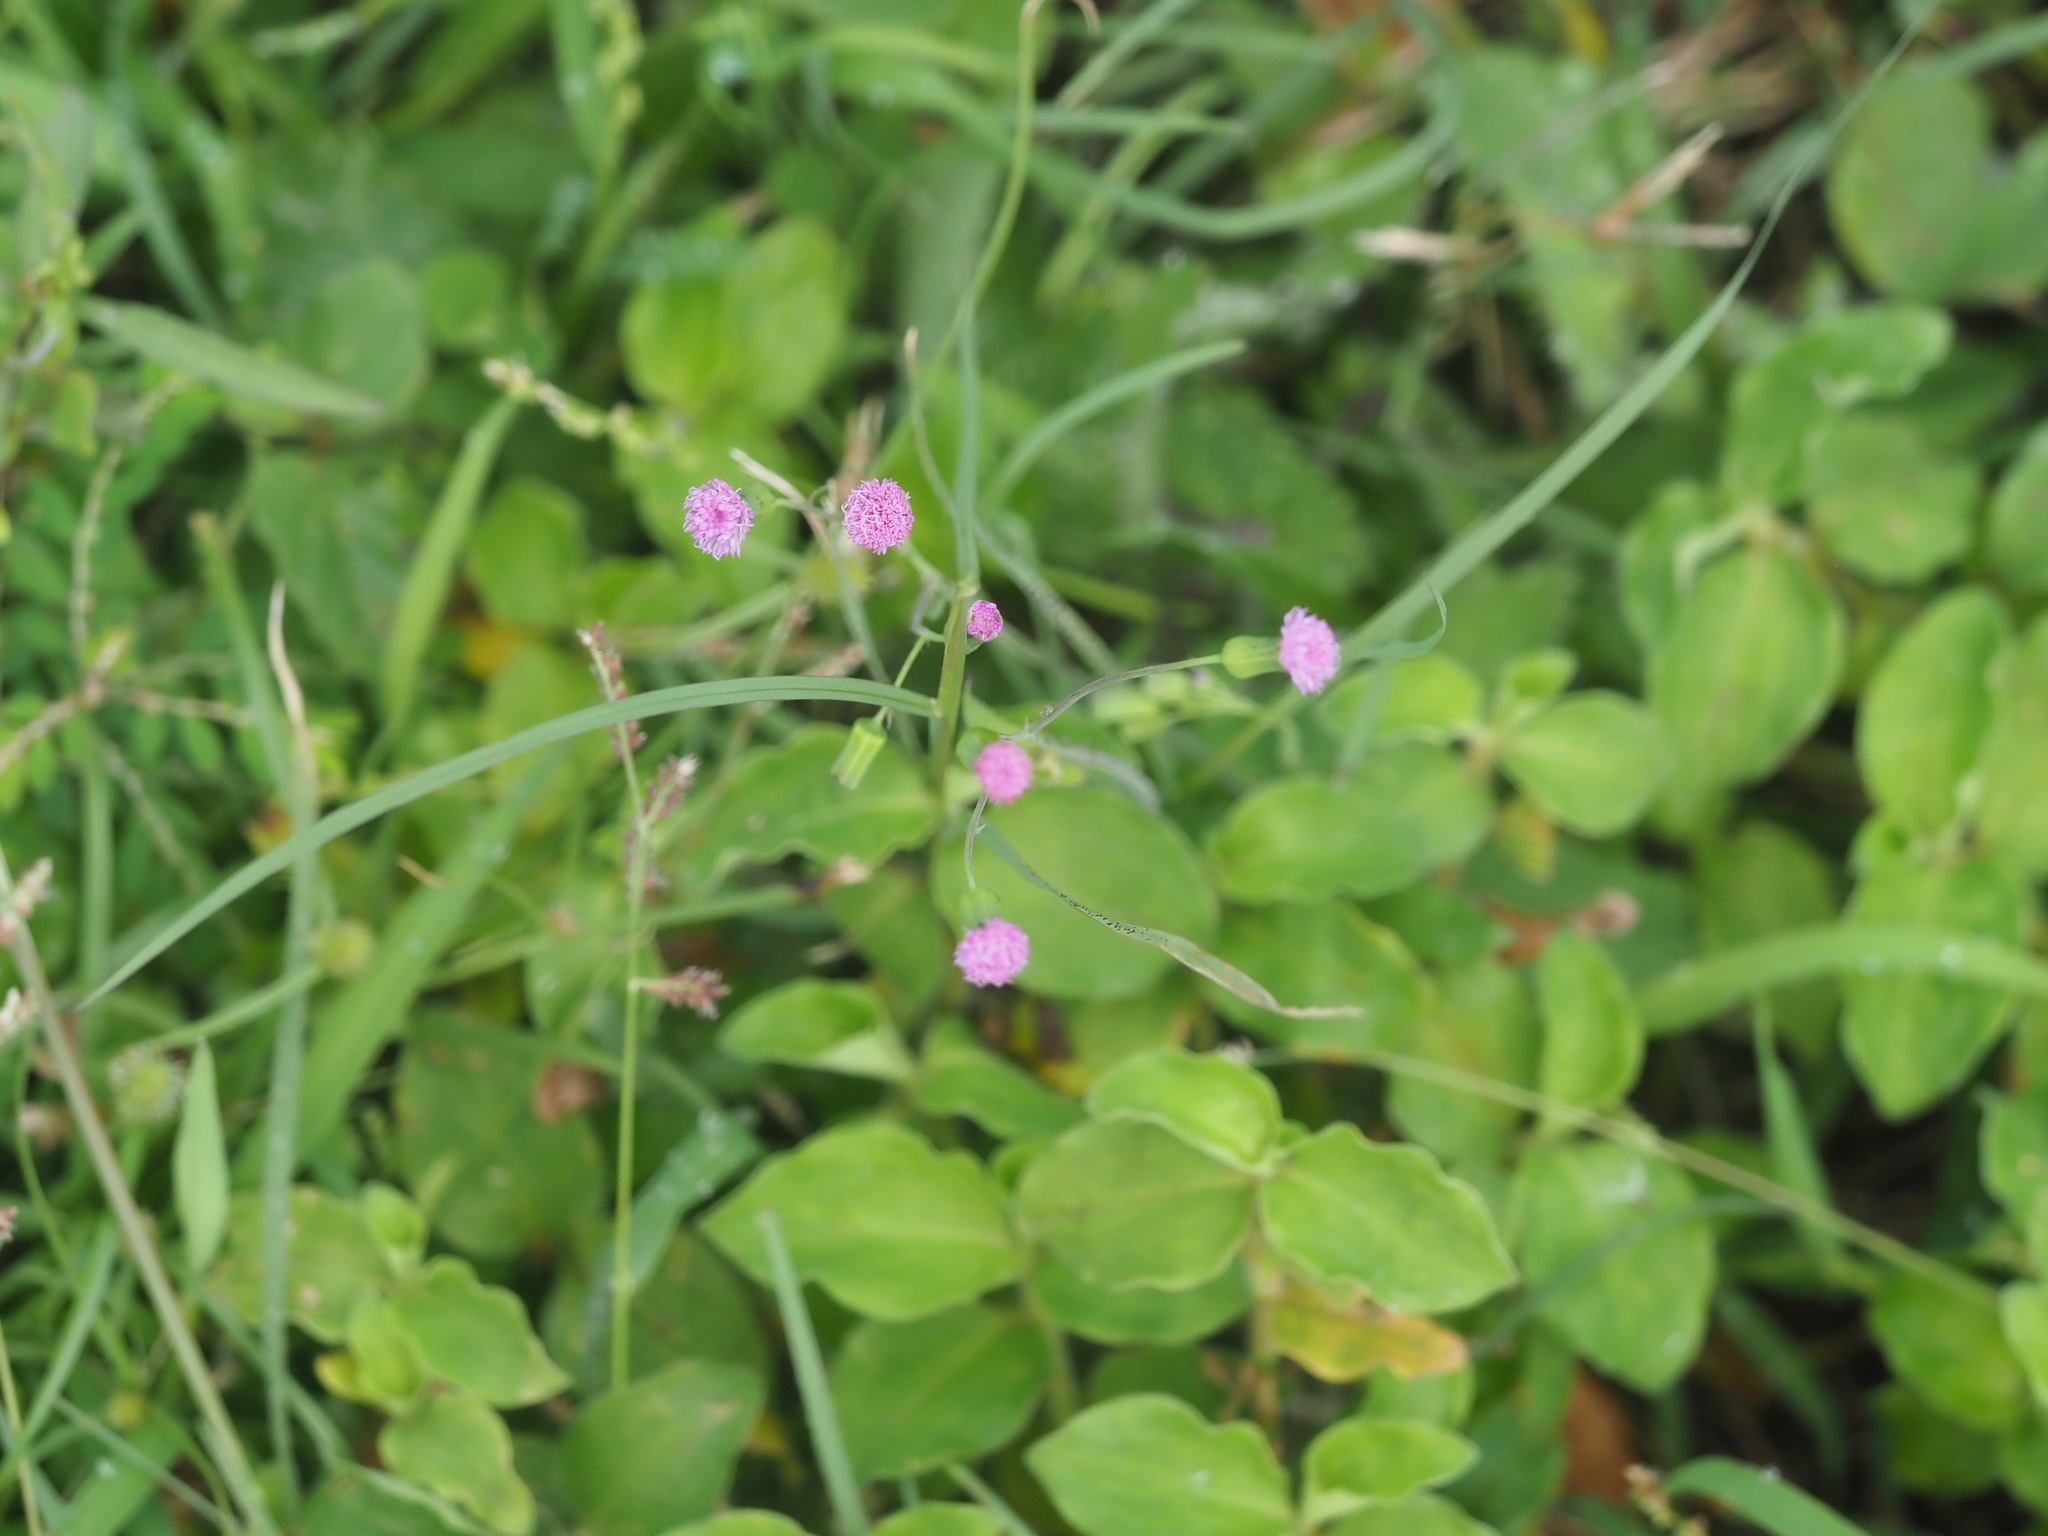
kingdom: Plantae
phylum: Tracheophyta
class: Magnoliopsida
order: Asterales
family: Asteraceae
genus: Emilia
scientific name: Emilia sonchifolia
